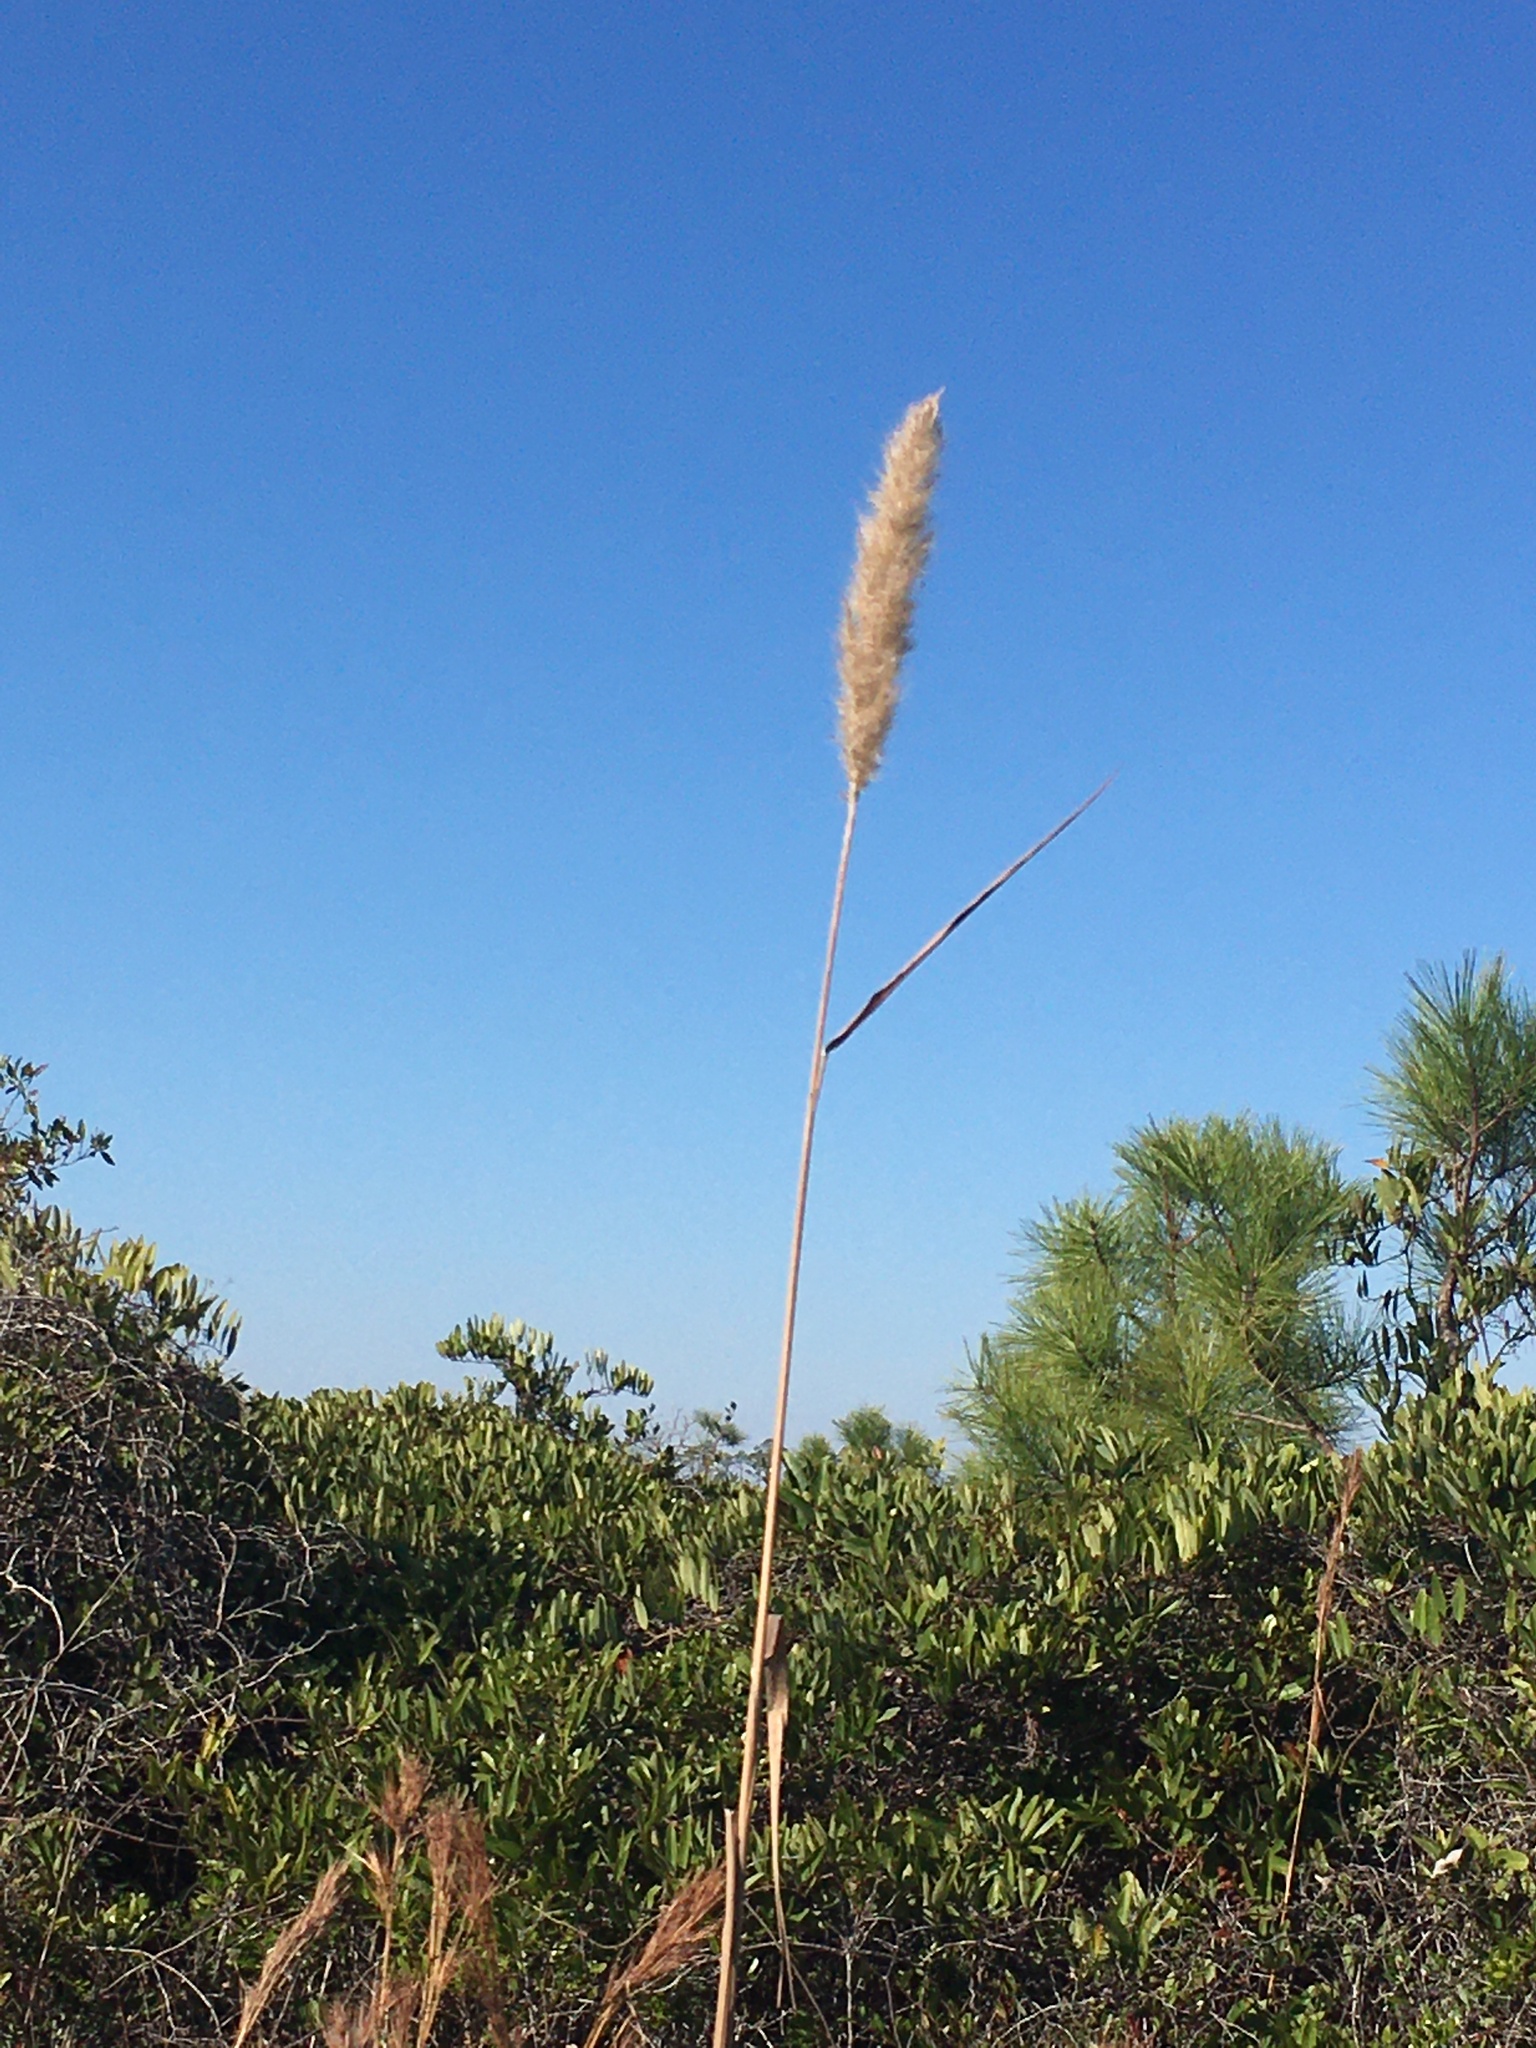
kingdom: Plantae
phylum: Tracheophyta
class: Liliopsida
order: Poales
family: Poaceae
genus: Erianthus
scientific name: Erianthus giganteus
